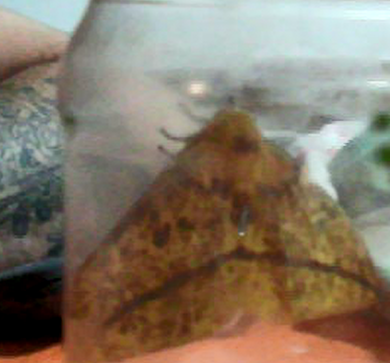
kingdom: Animalia
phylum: Arthropoda
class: Insecta
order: Lepidoptera
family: Saturniidae
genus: Eacles
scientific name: Eacles imperialis
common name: Imperial moth
